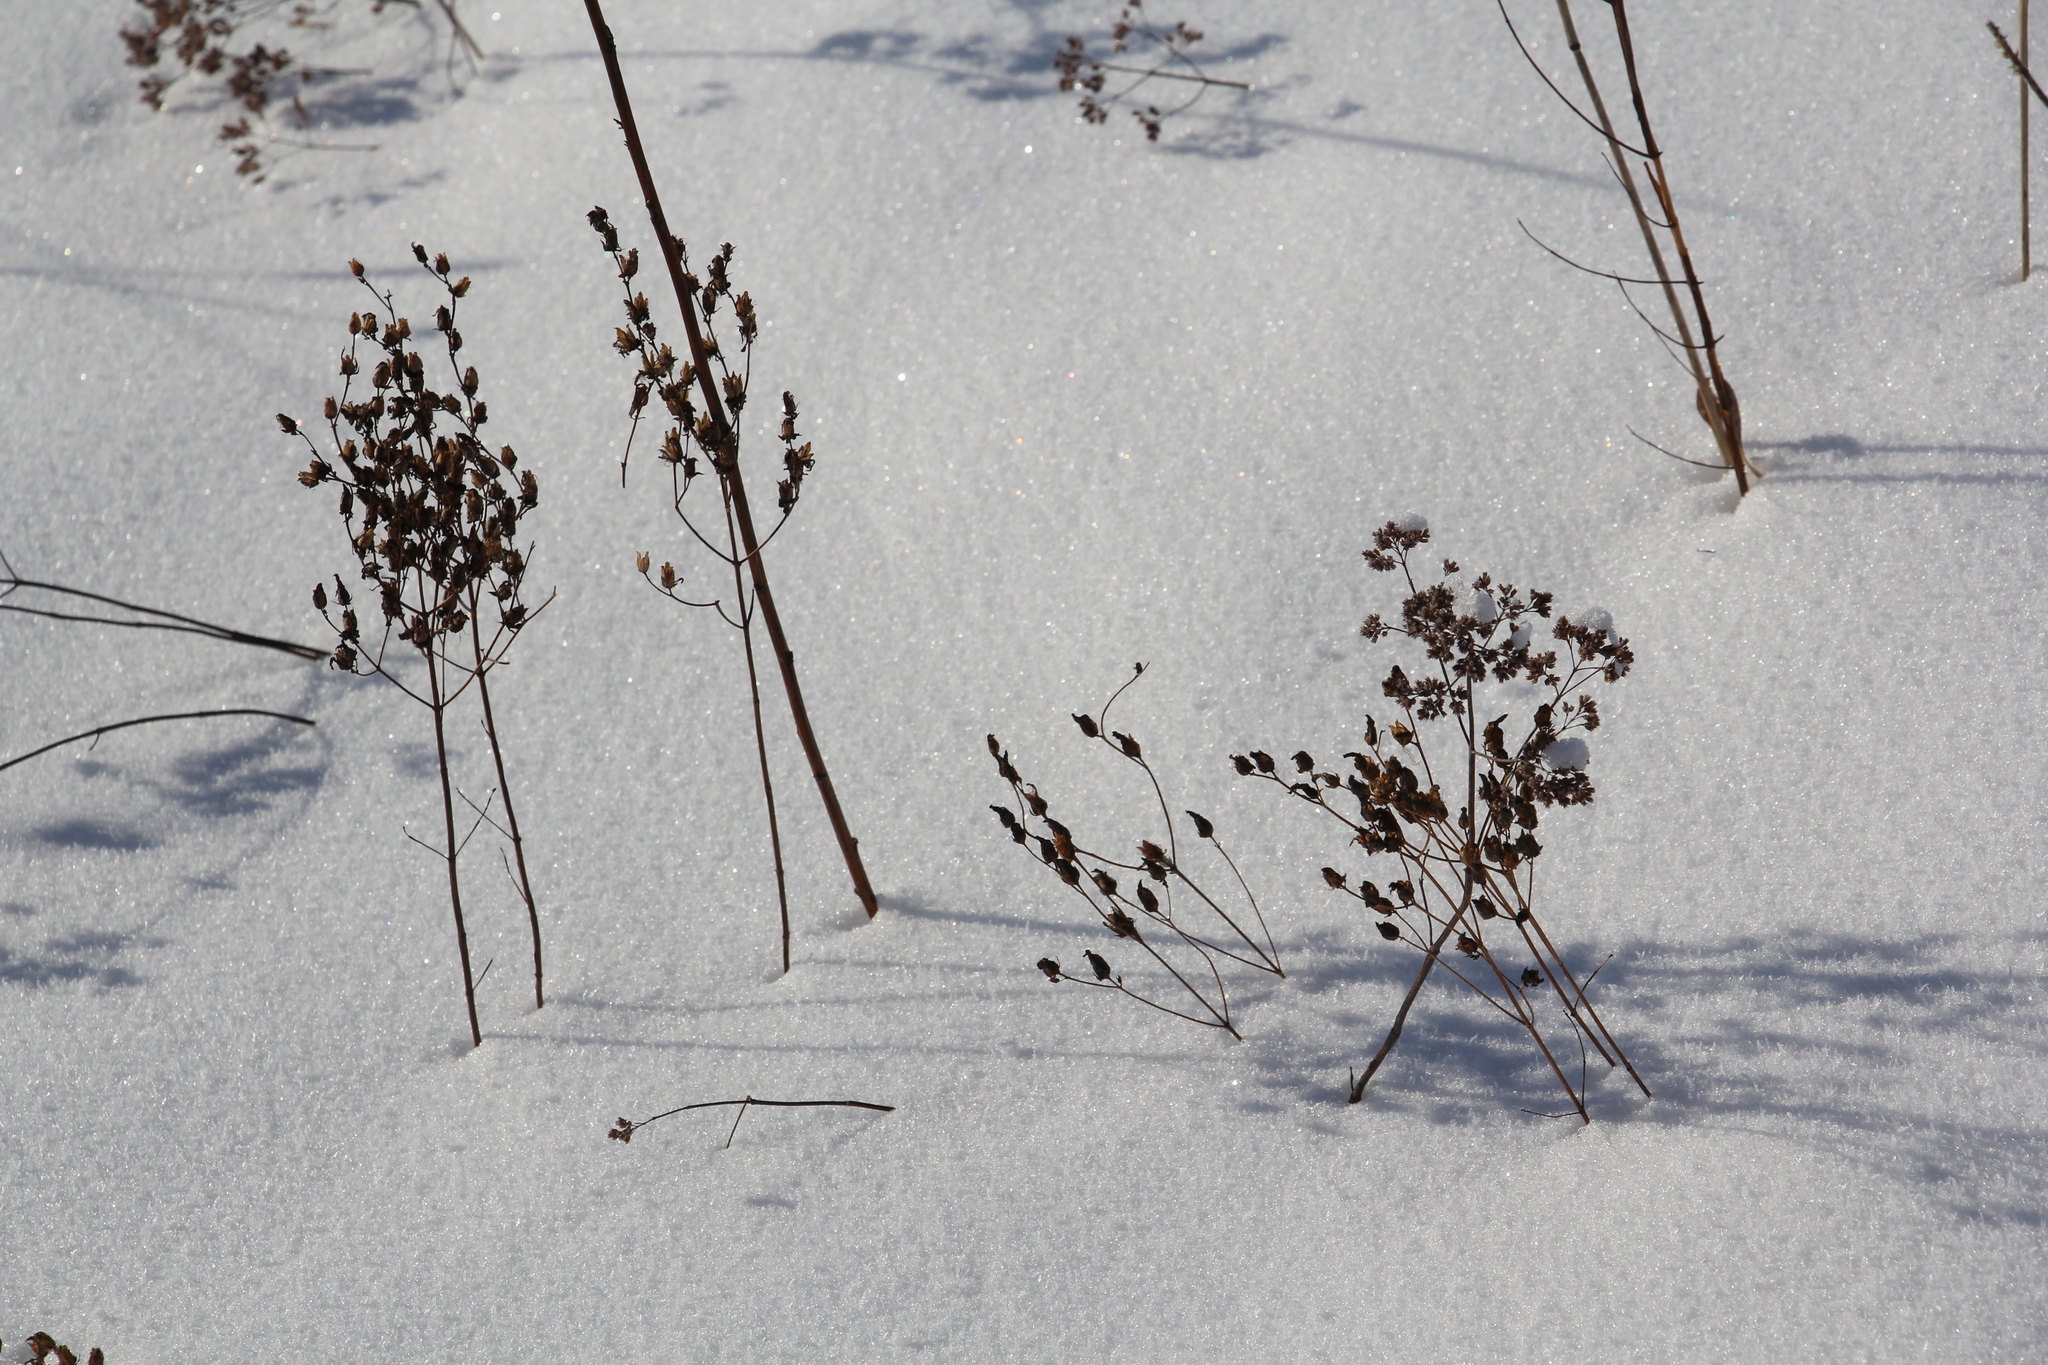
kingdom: Plantae
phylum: Tracheophyta
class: Magnoliopsida
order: Malpighiales
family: Hypericaceae
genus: Hypericum
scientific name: Hypericum perforatum
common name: Common st. johnswort
